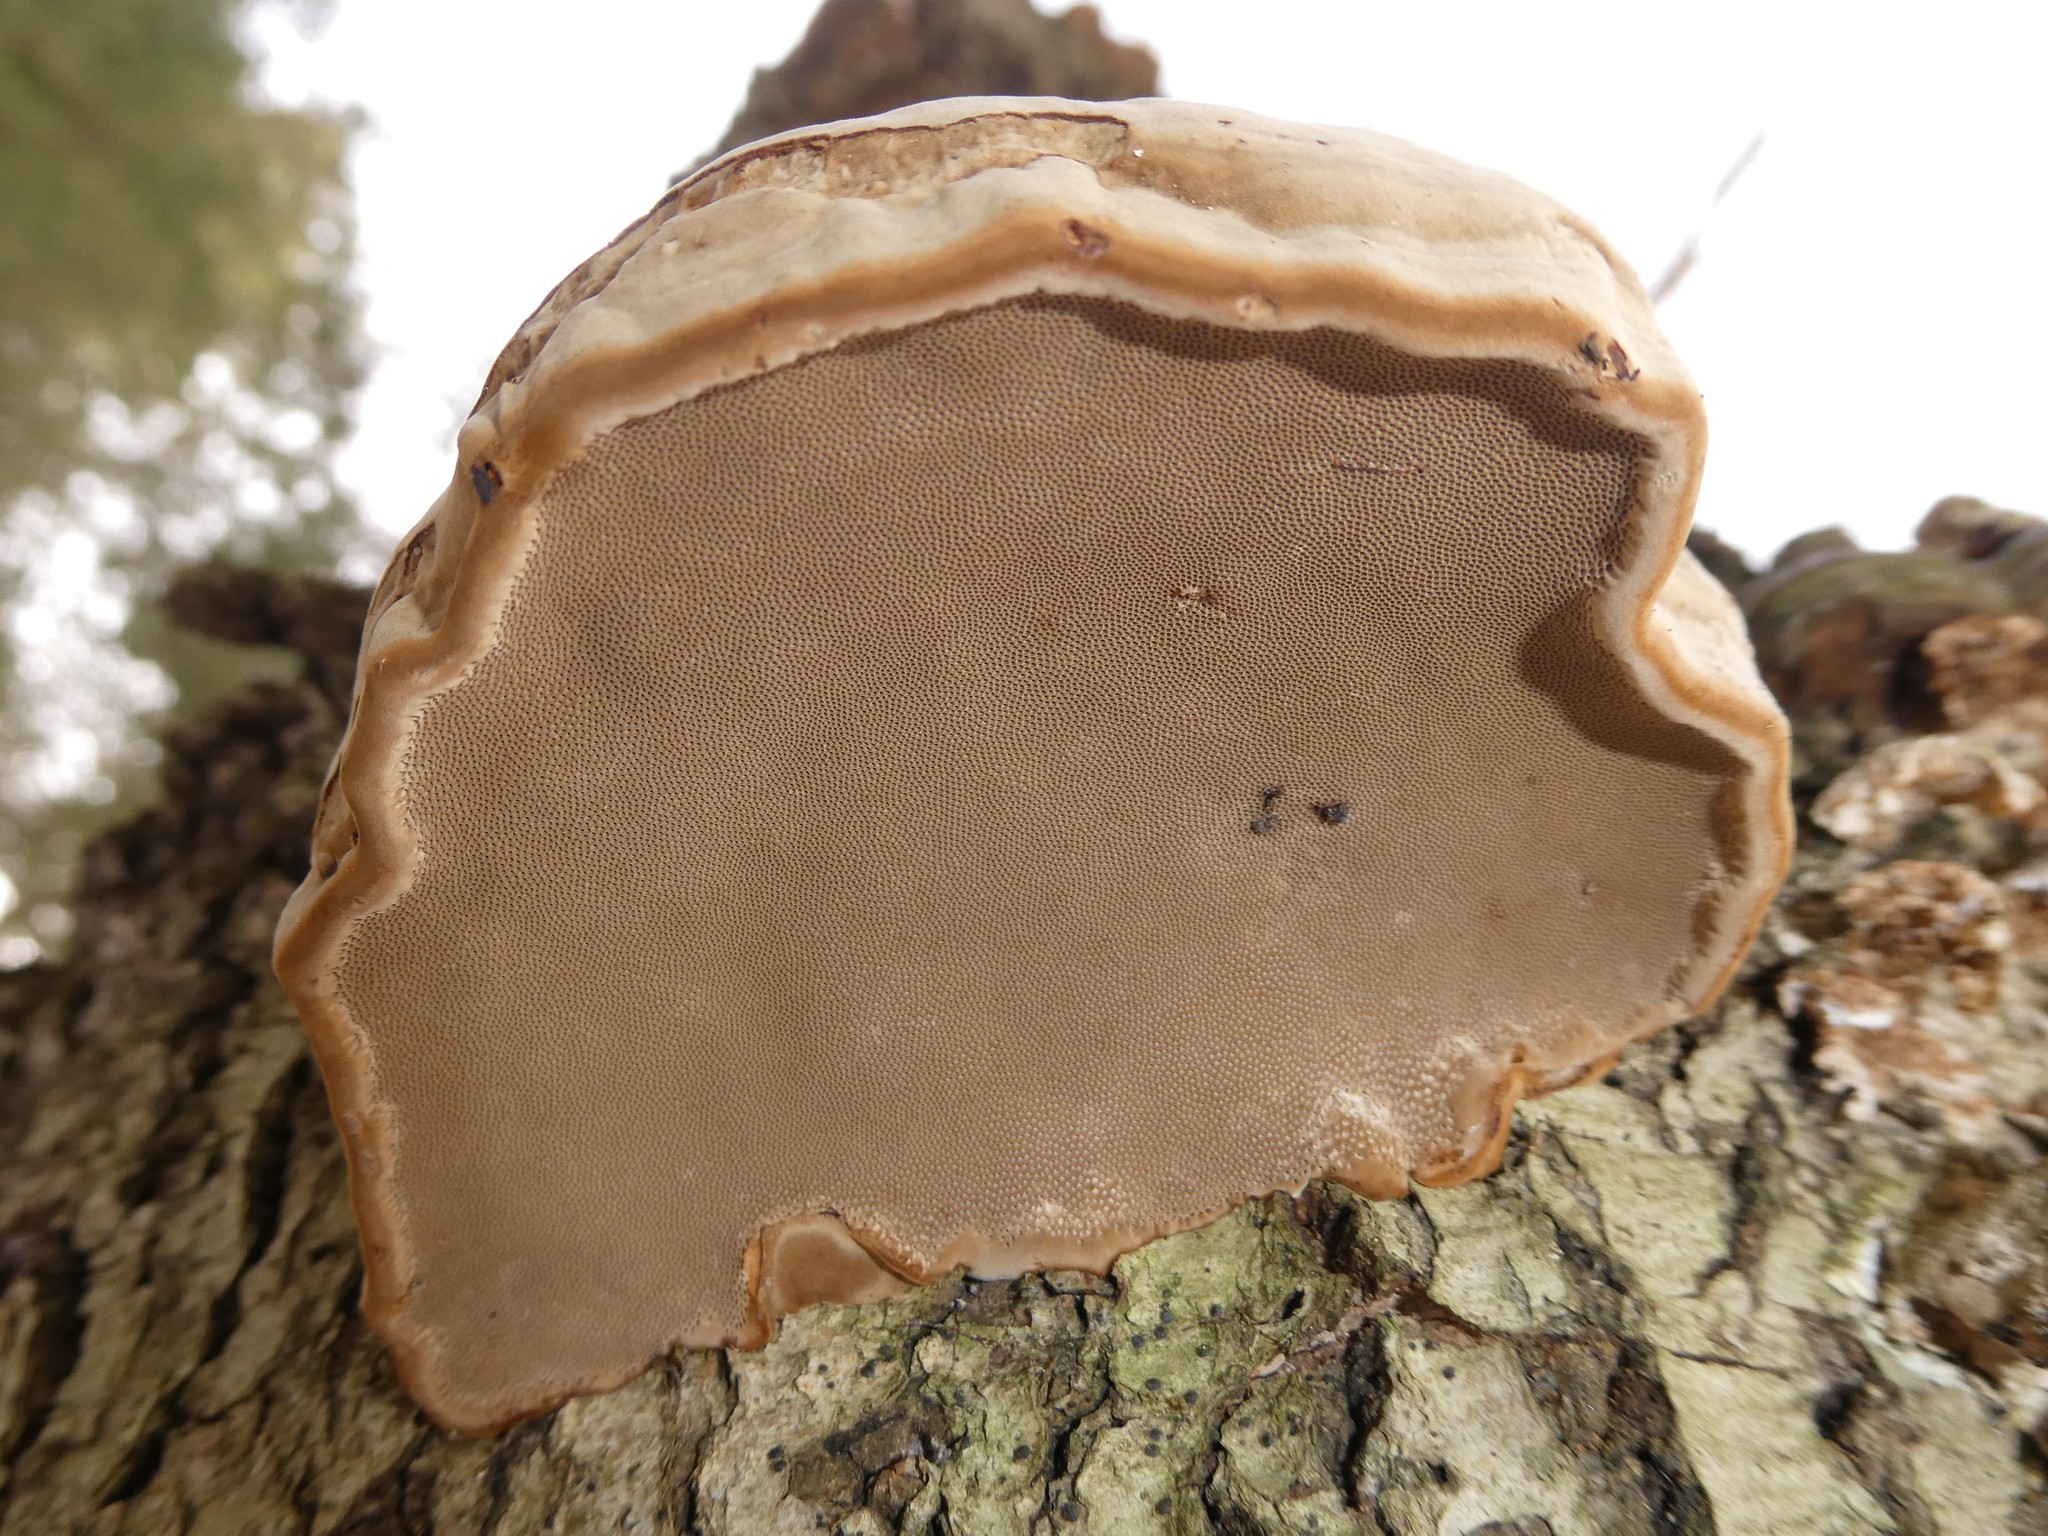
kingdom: Fungi
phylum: Basidiomycota
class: Agaricomycetes
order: Polyporales
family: Polyporaceae
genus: Fomes
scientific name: Fomes fomentarius
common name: Hoof fungus
